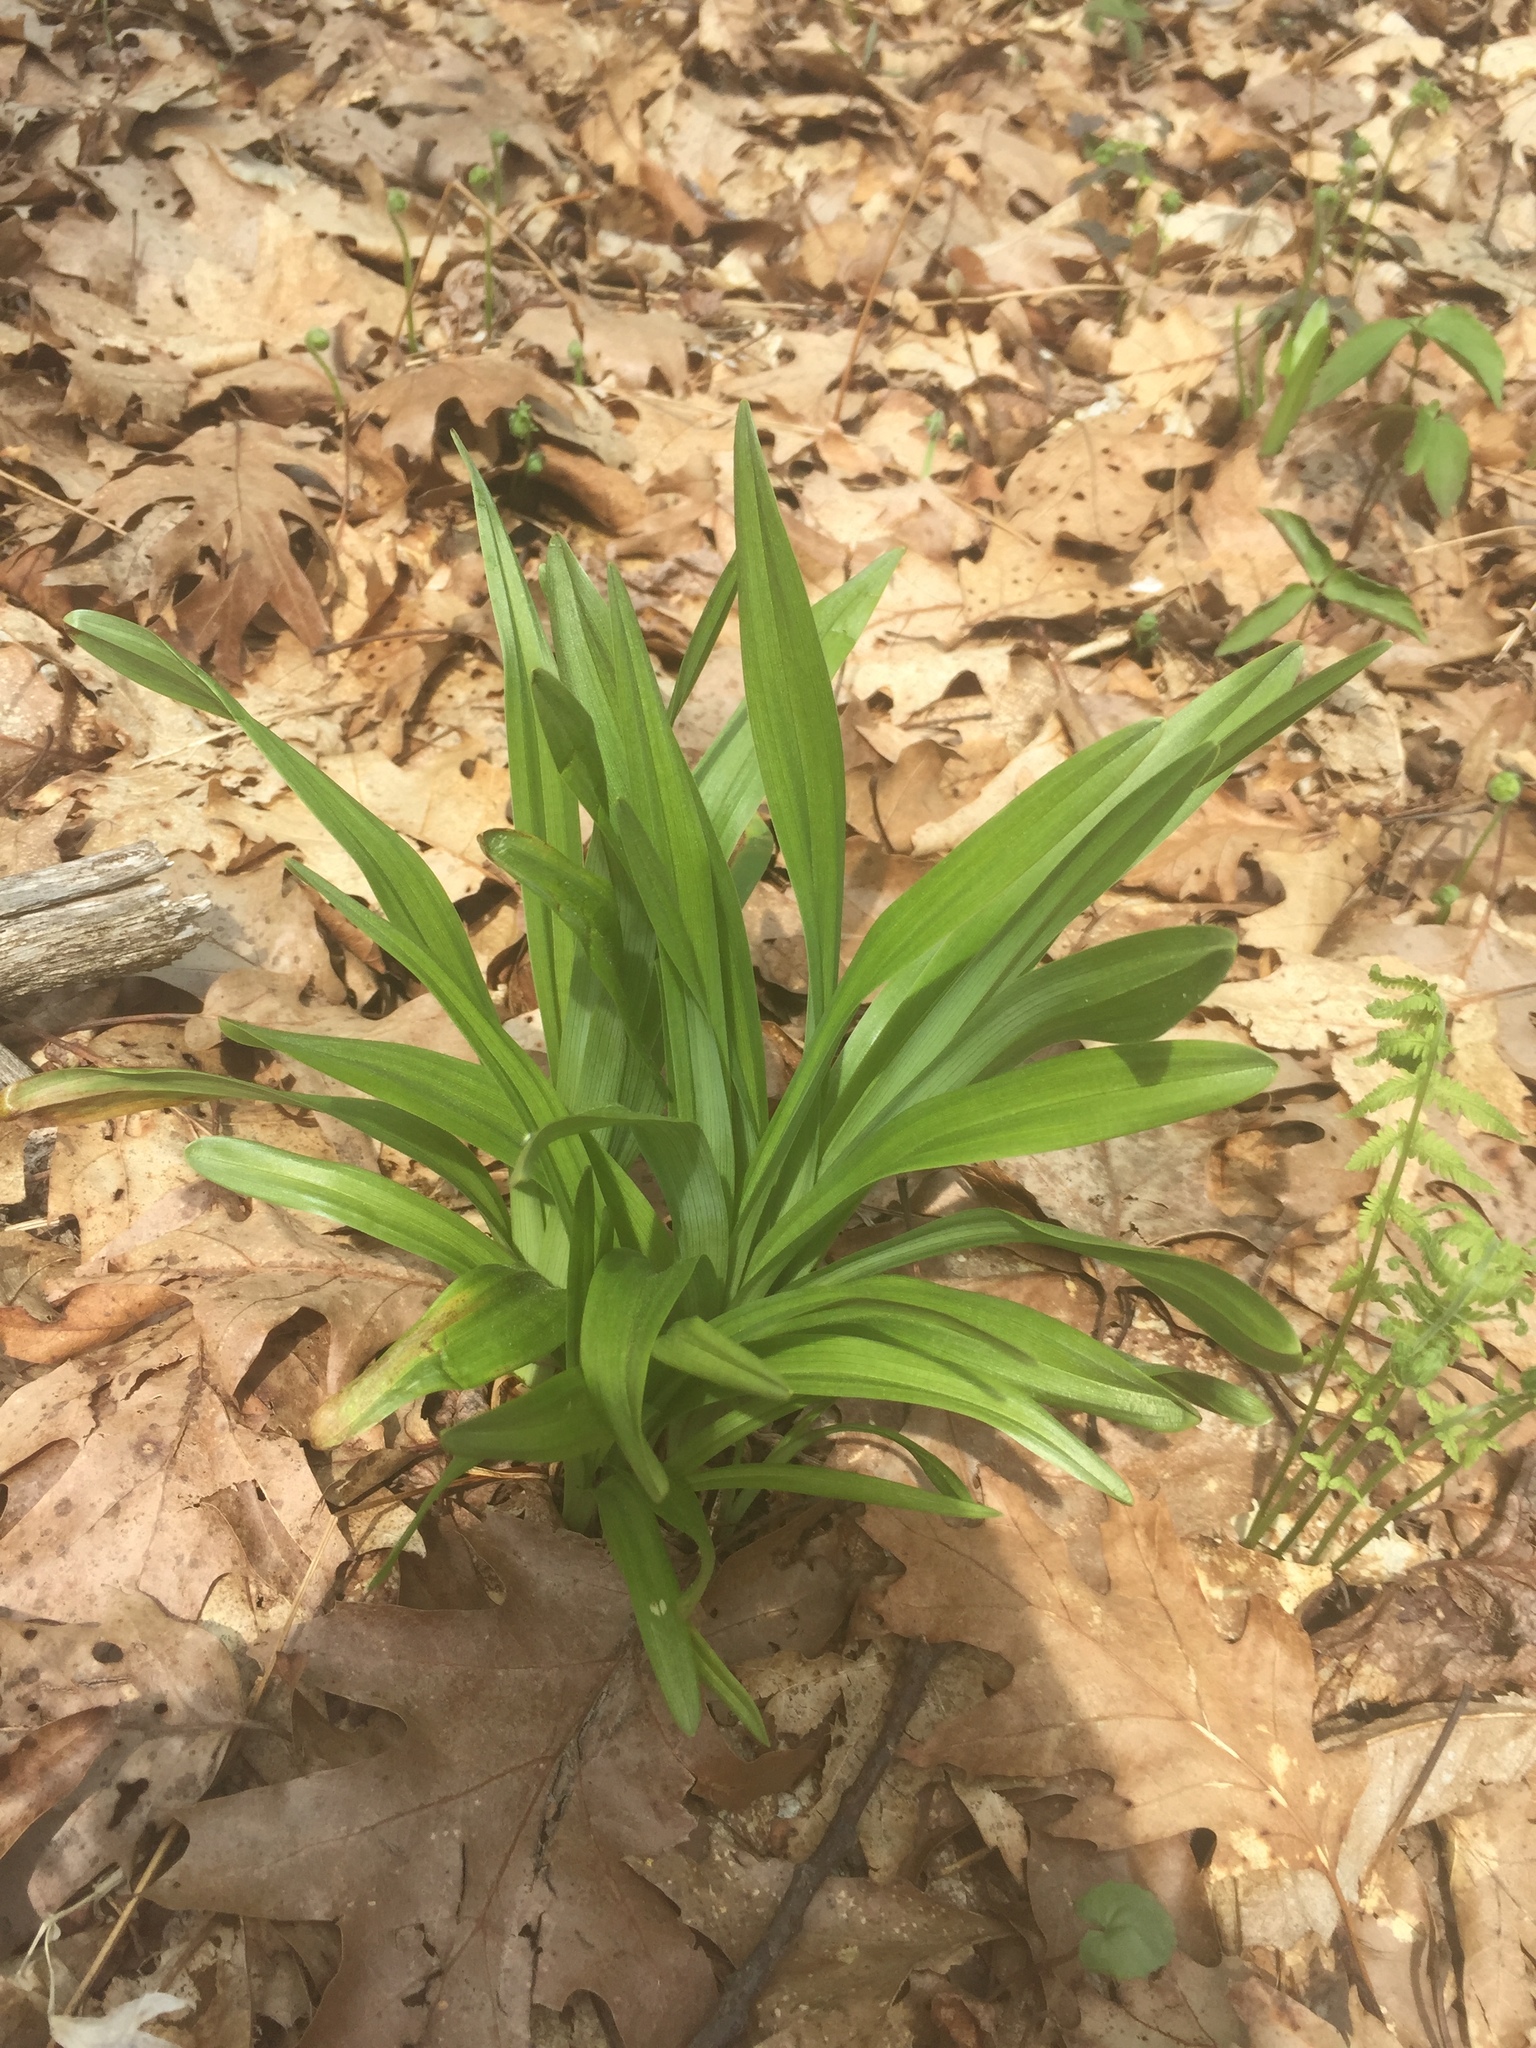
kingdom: Plantae
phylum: Tracheophyta
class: Liliopsida
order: Liliales
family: Melanthiaceae
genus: Amianthium
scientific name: Amianthium muscitoxicum
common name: Fly-poison
